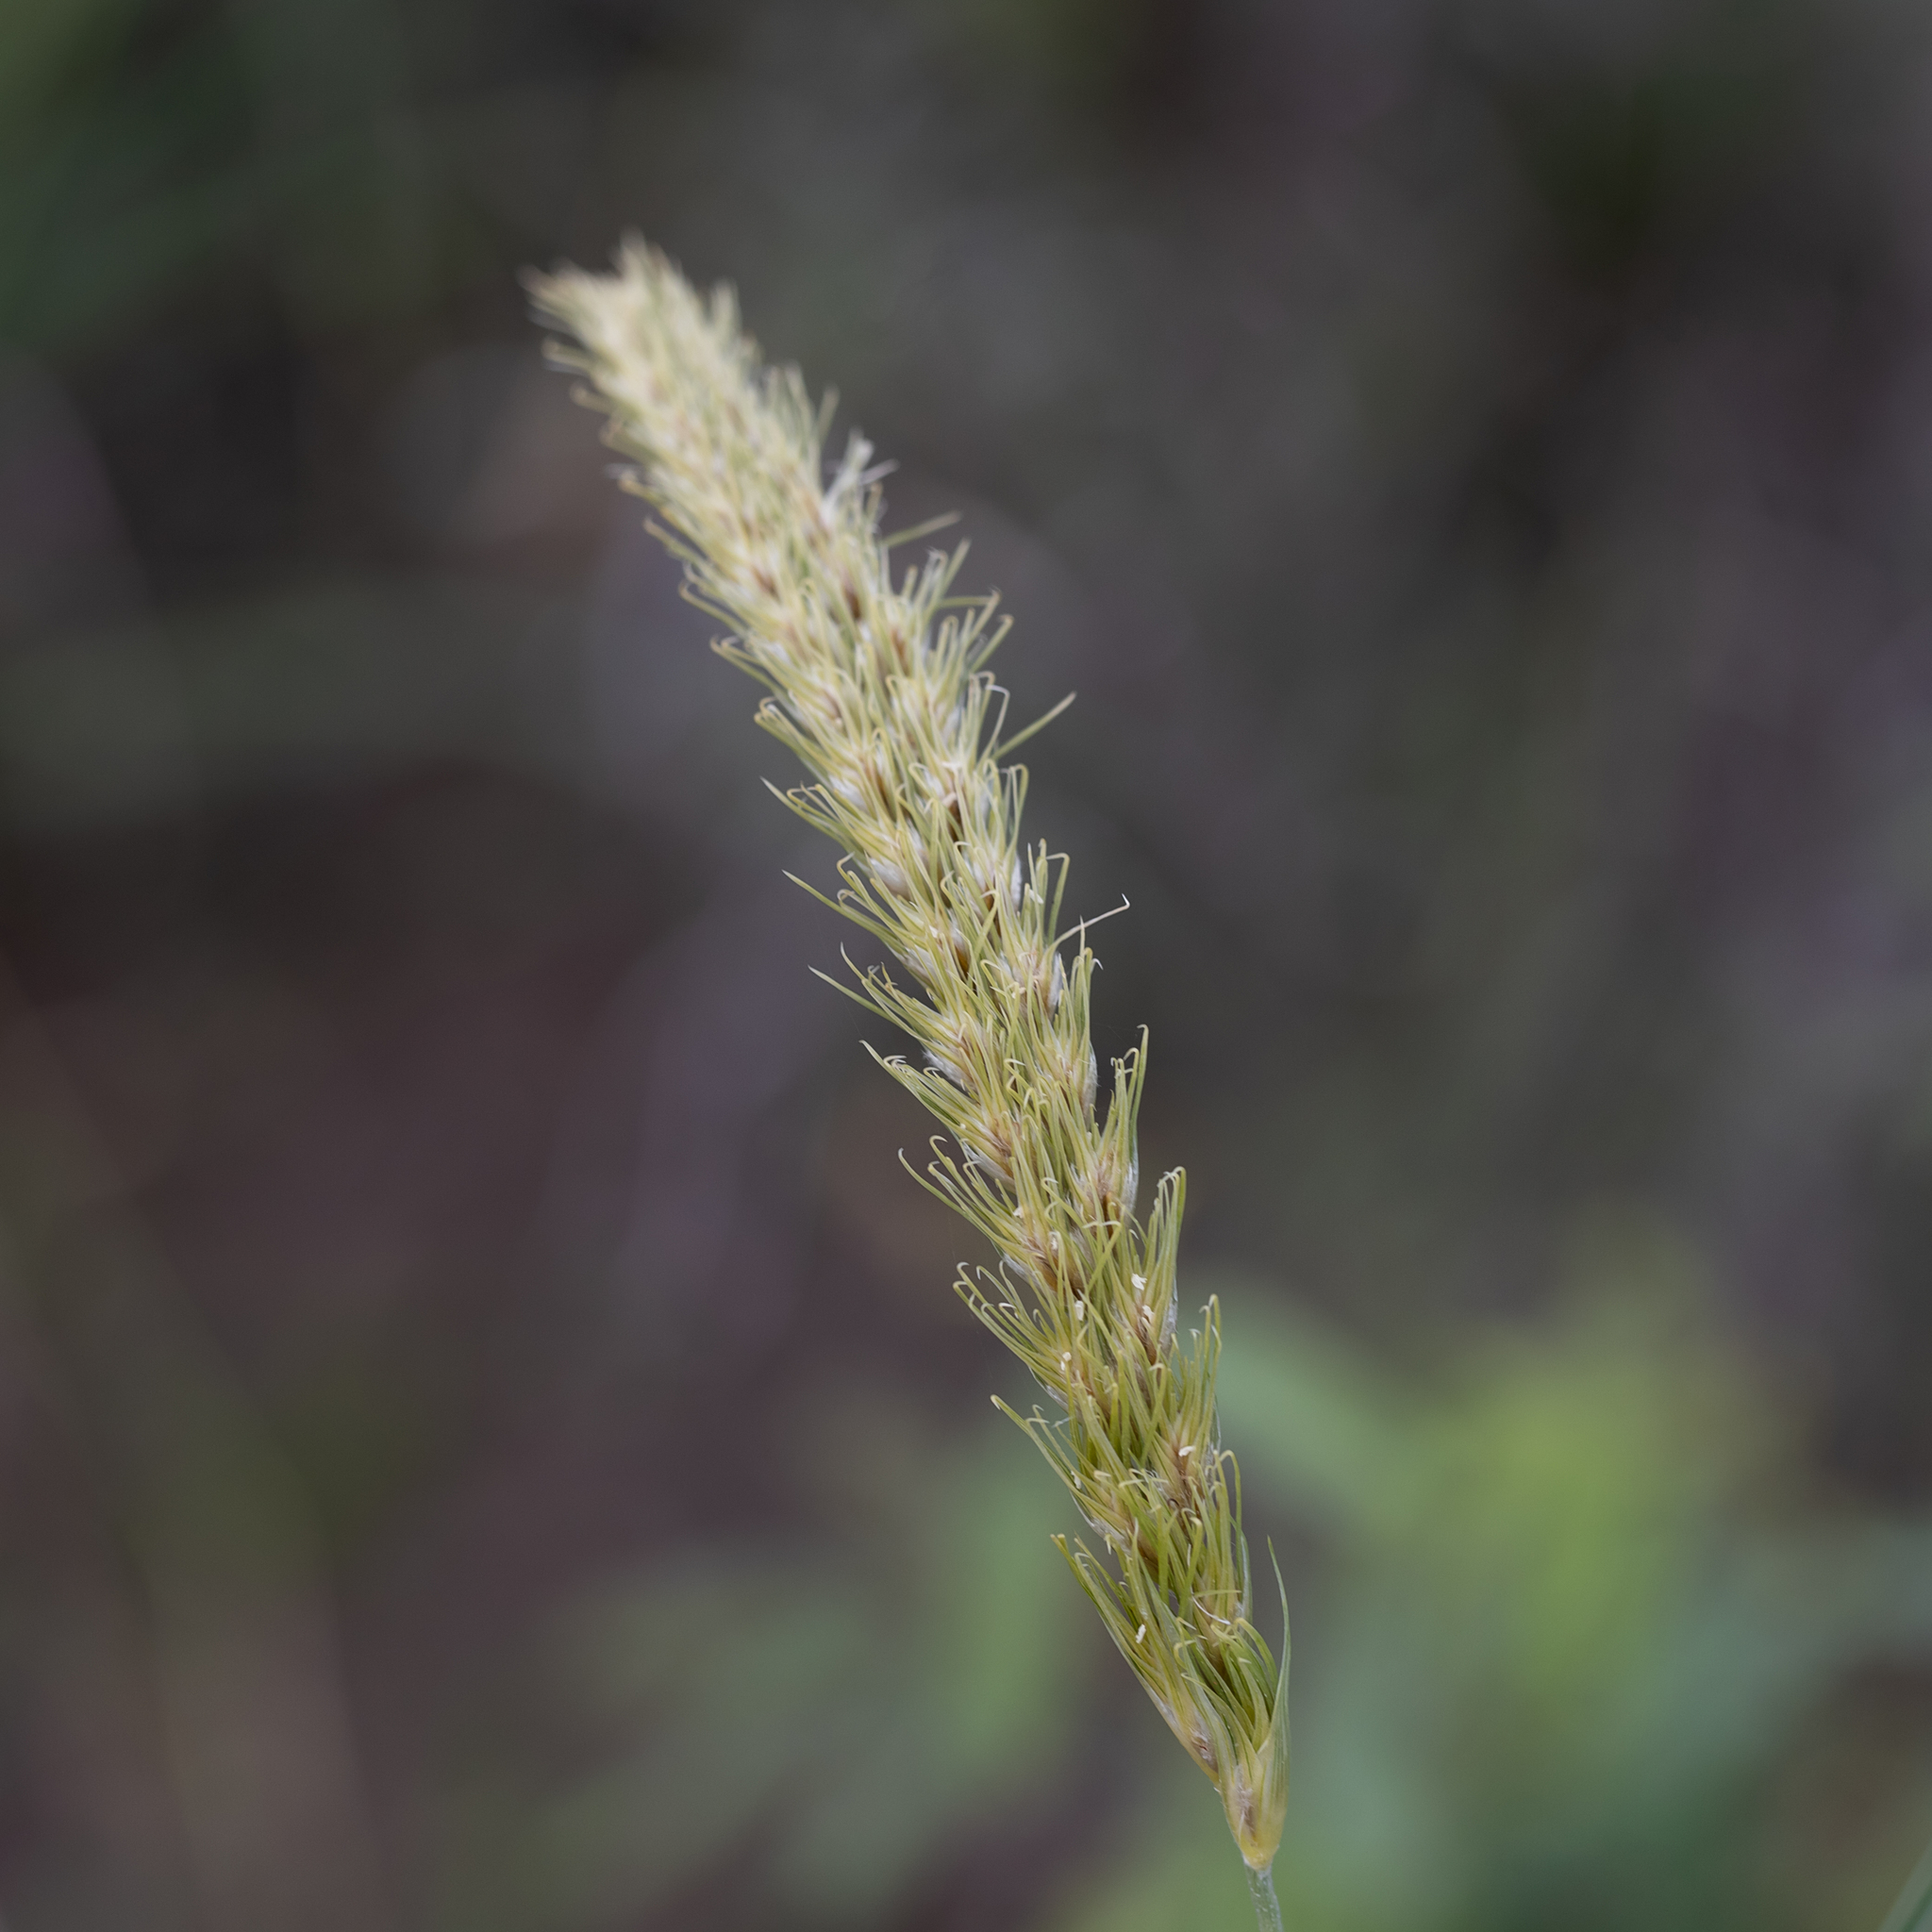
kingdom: Plantae
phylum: Tracheophyta
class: Liliopsida
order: Poales
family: Poaceae
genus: Astrebla
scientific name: Astrebla squarrosa
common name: Wheat-ear mitchell grass
